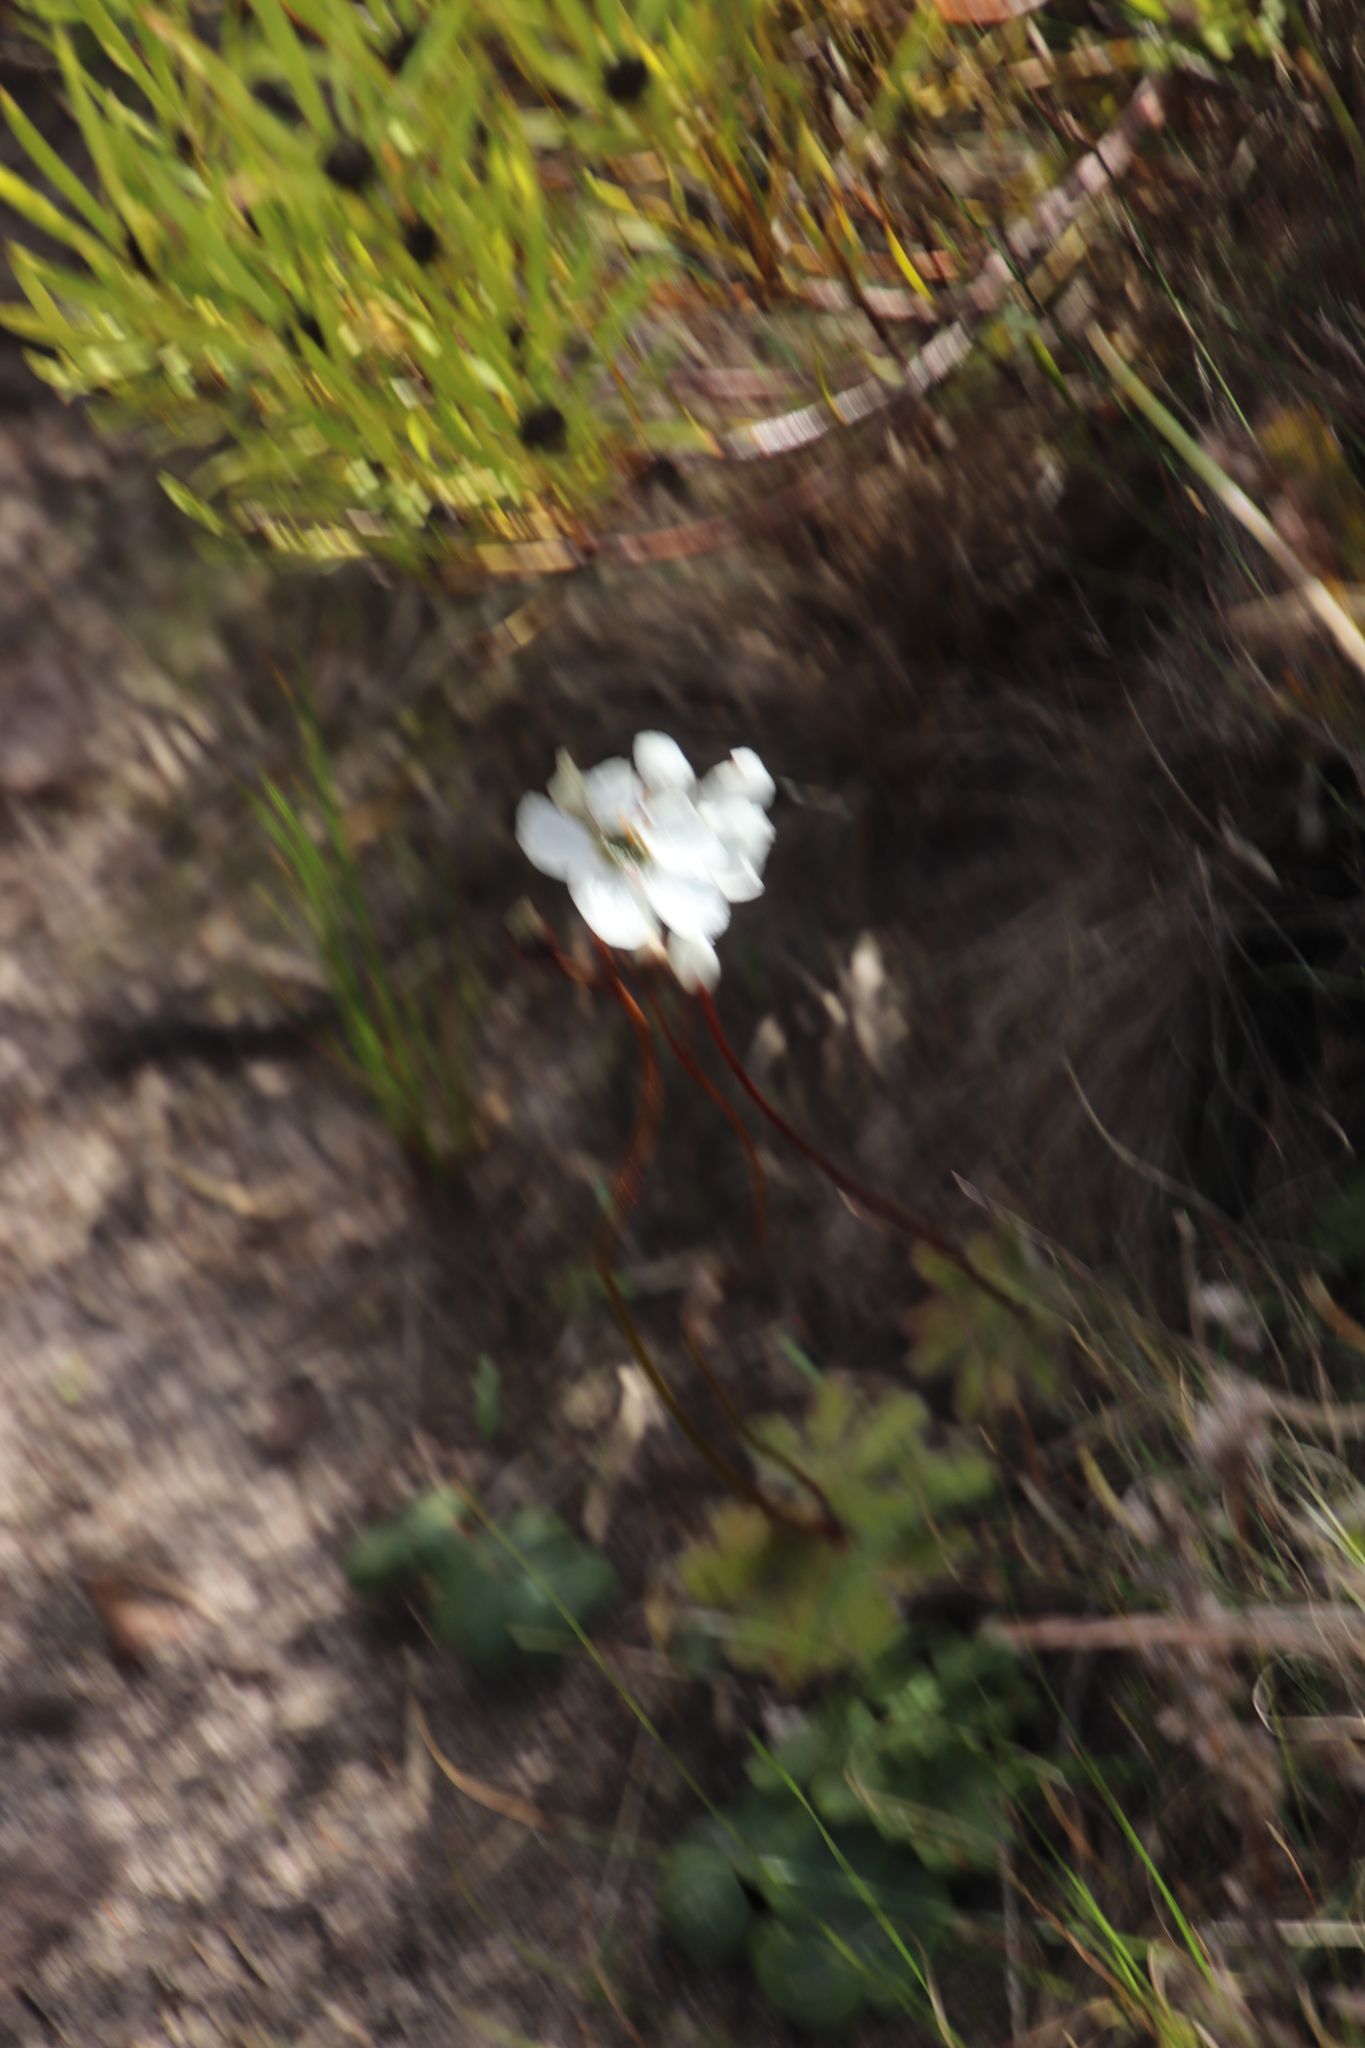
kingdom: Plantae
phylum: Tracheophyta
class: Magnoliopsida
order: Caryophyllales
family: Droseraceae
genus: Drosera
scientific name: Drosera pauciflora
